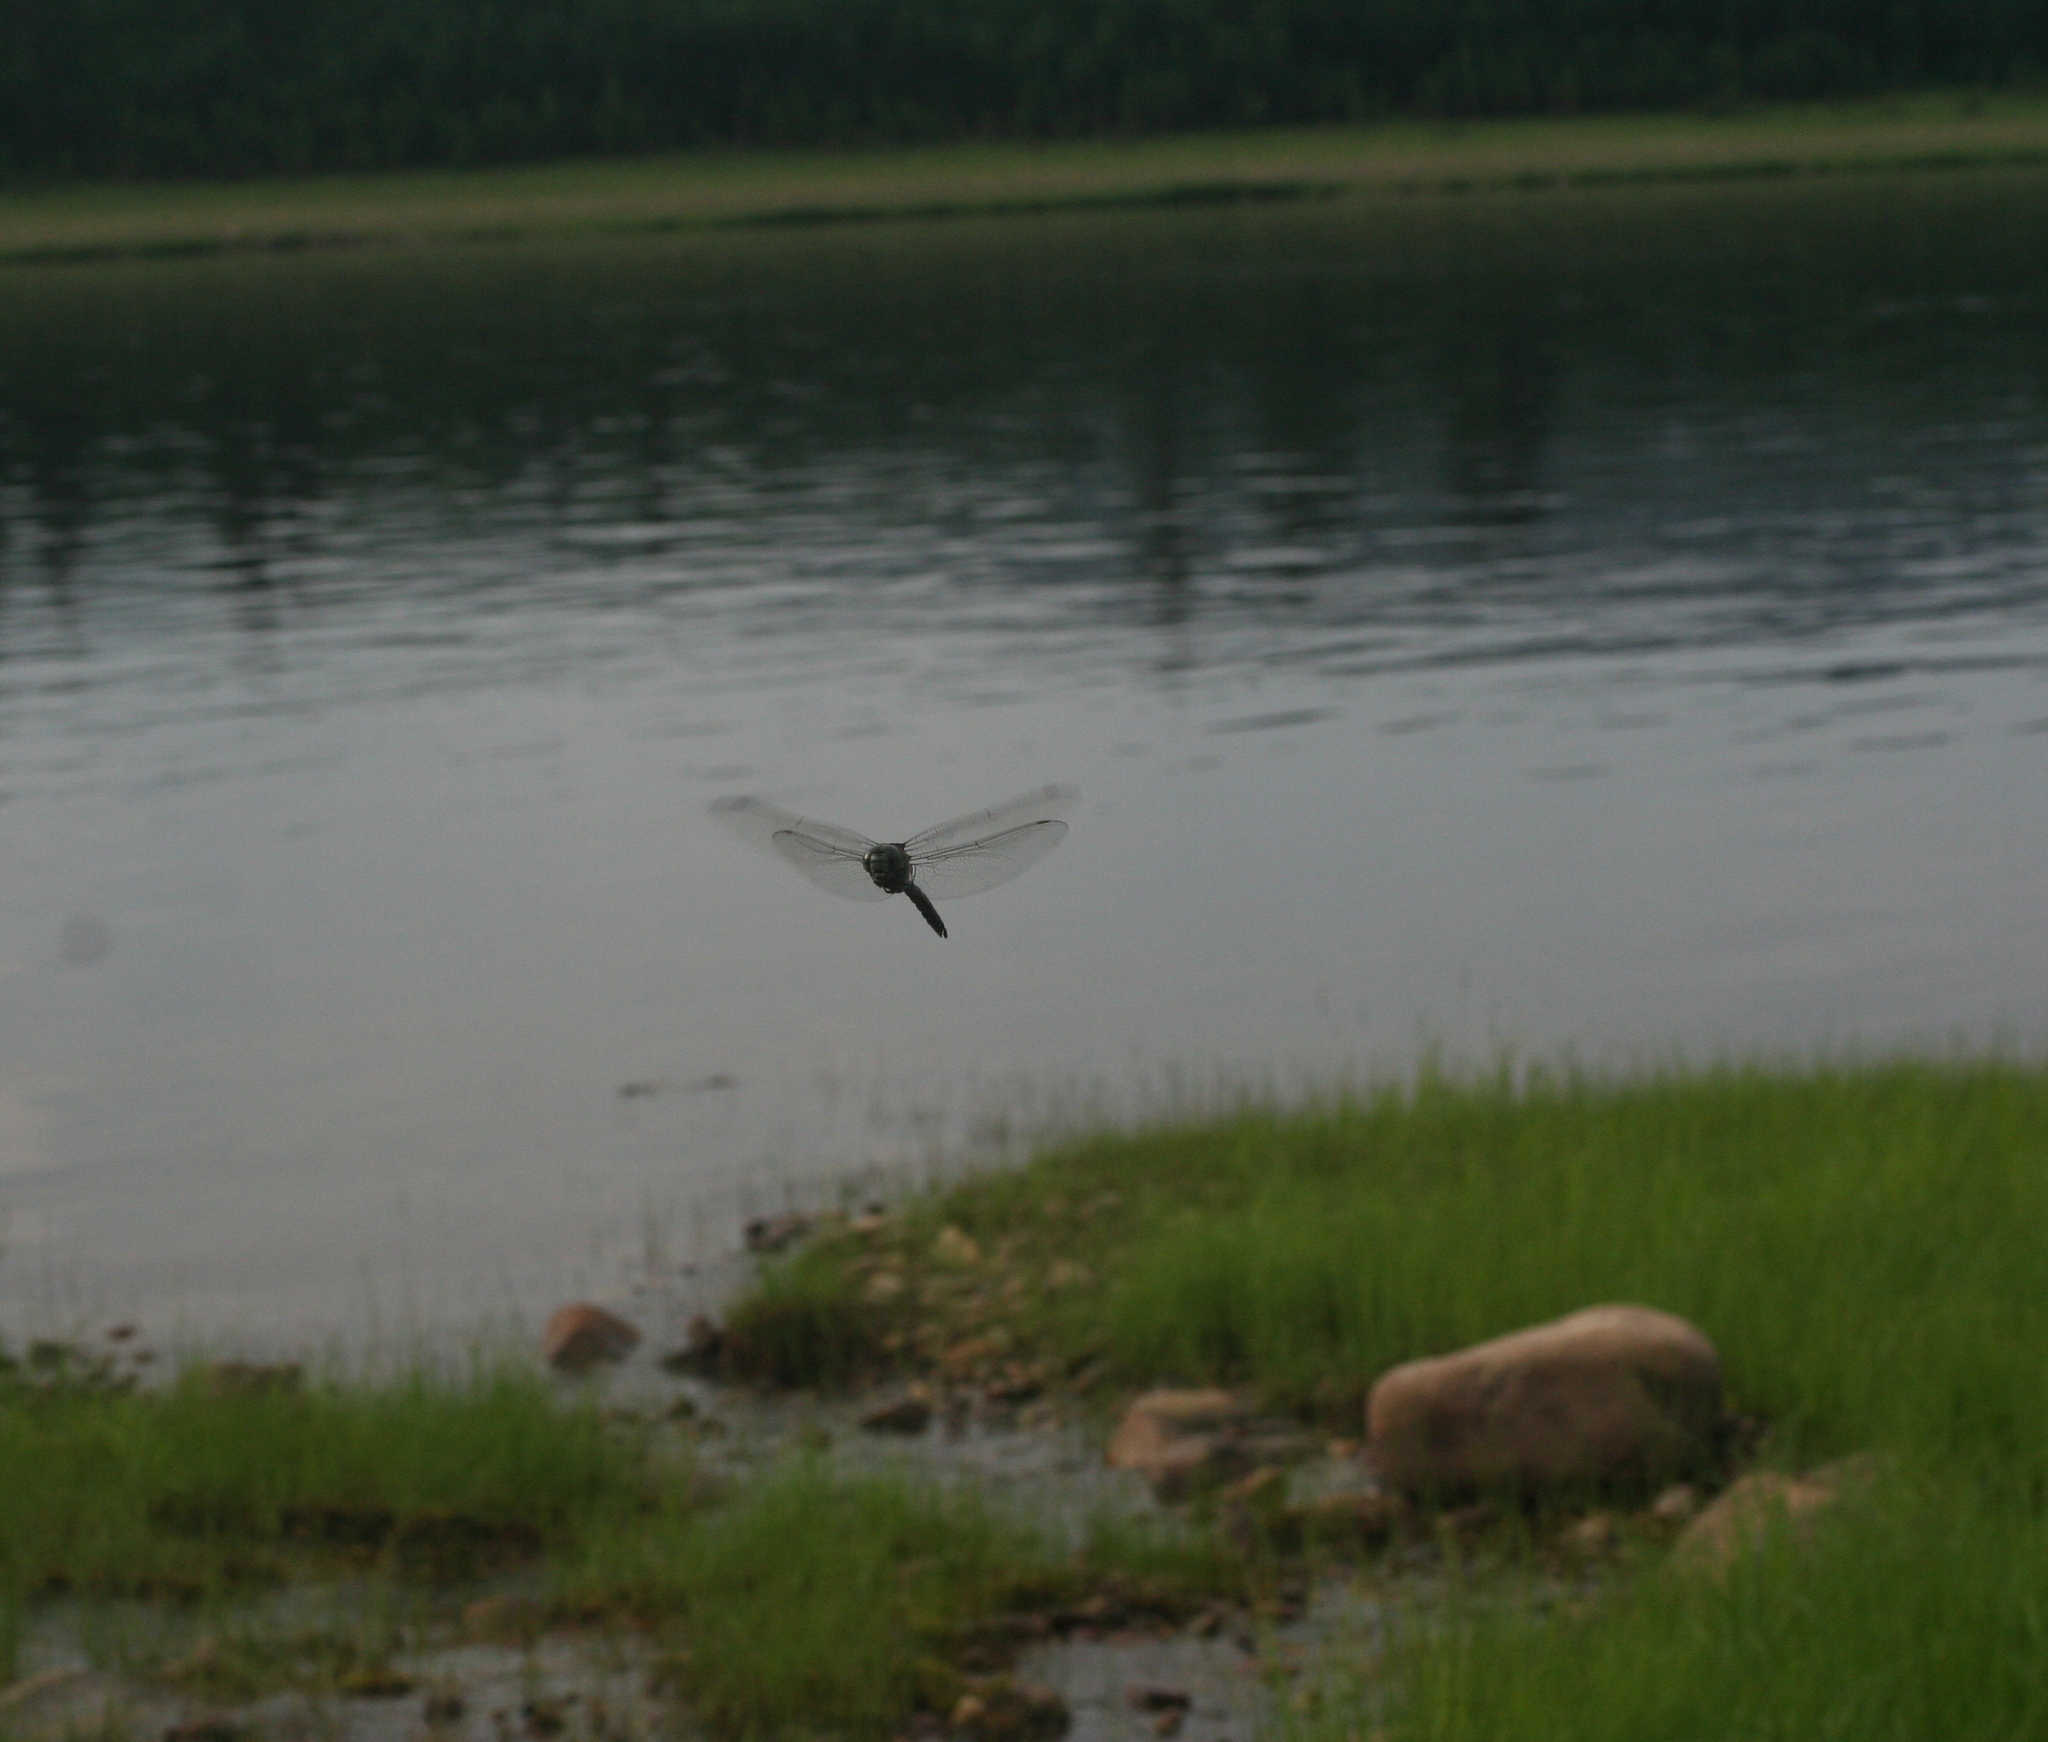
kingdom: Animalia
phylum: Arthropoda
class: Insecta
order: Odonata
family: Aeshnidae
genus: Aeshna
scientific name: Aeshna crenata
